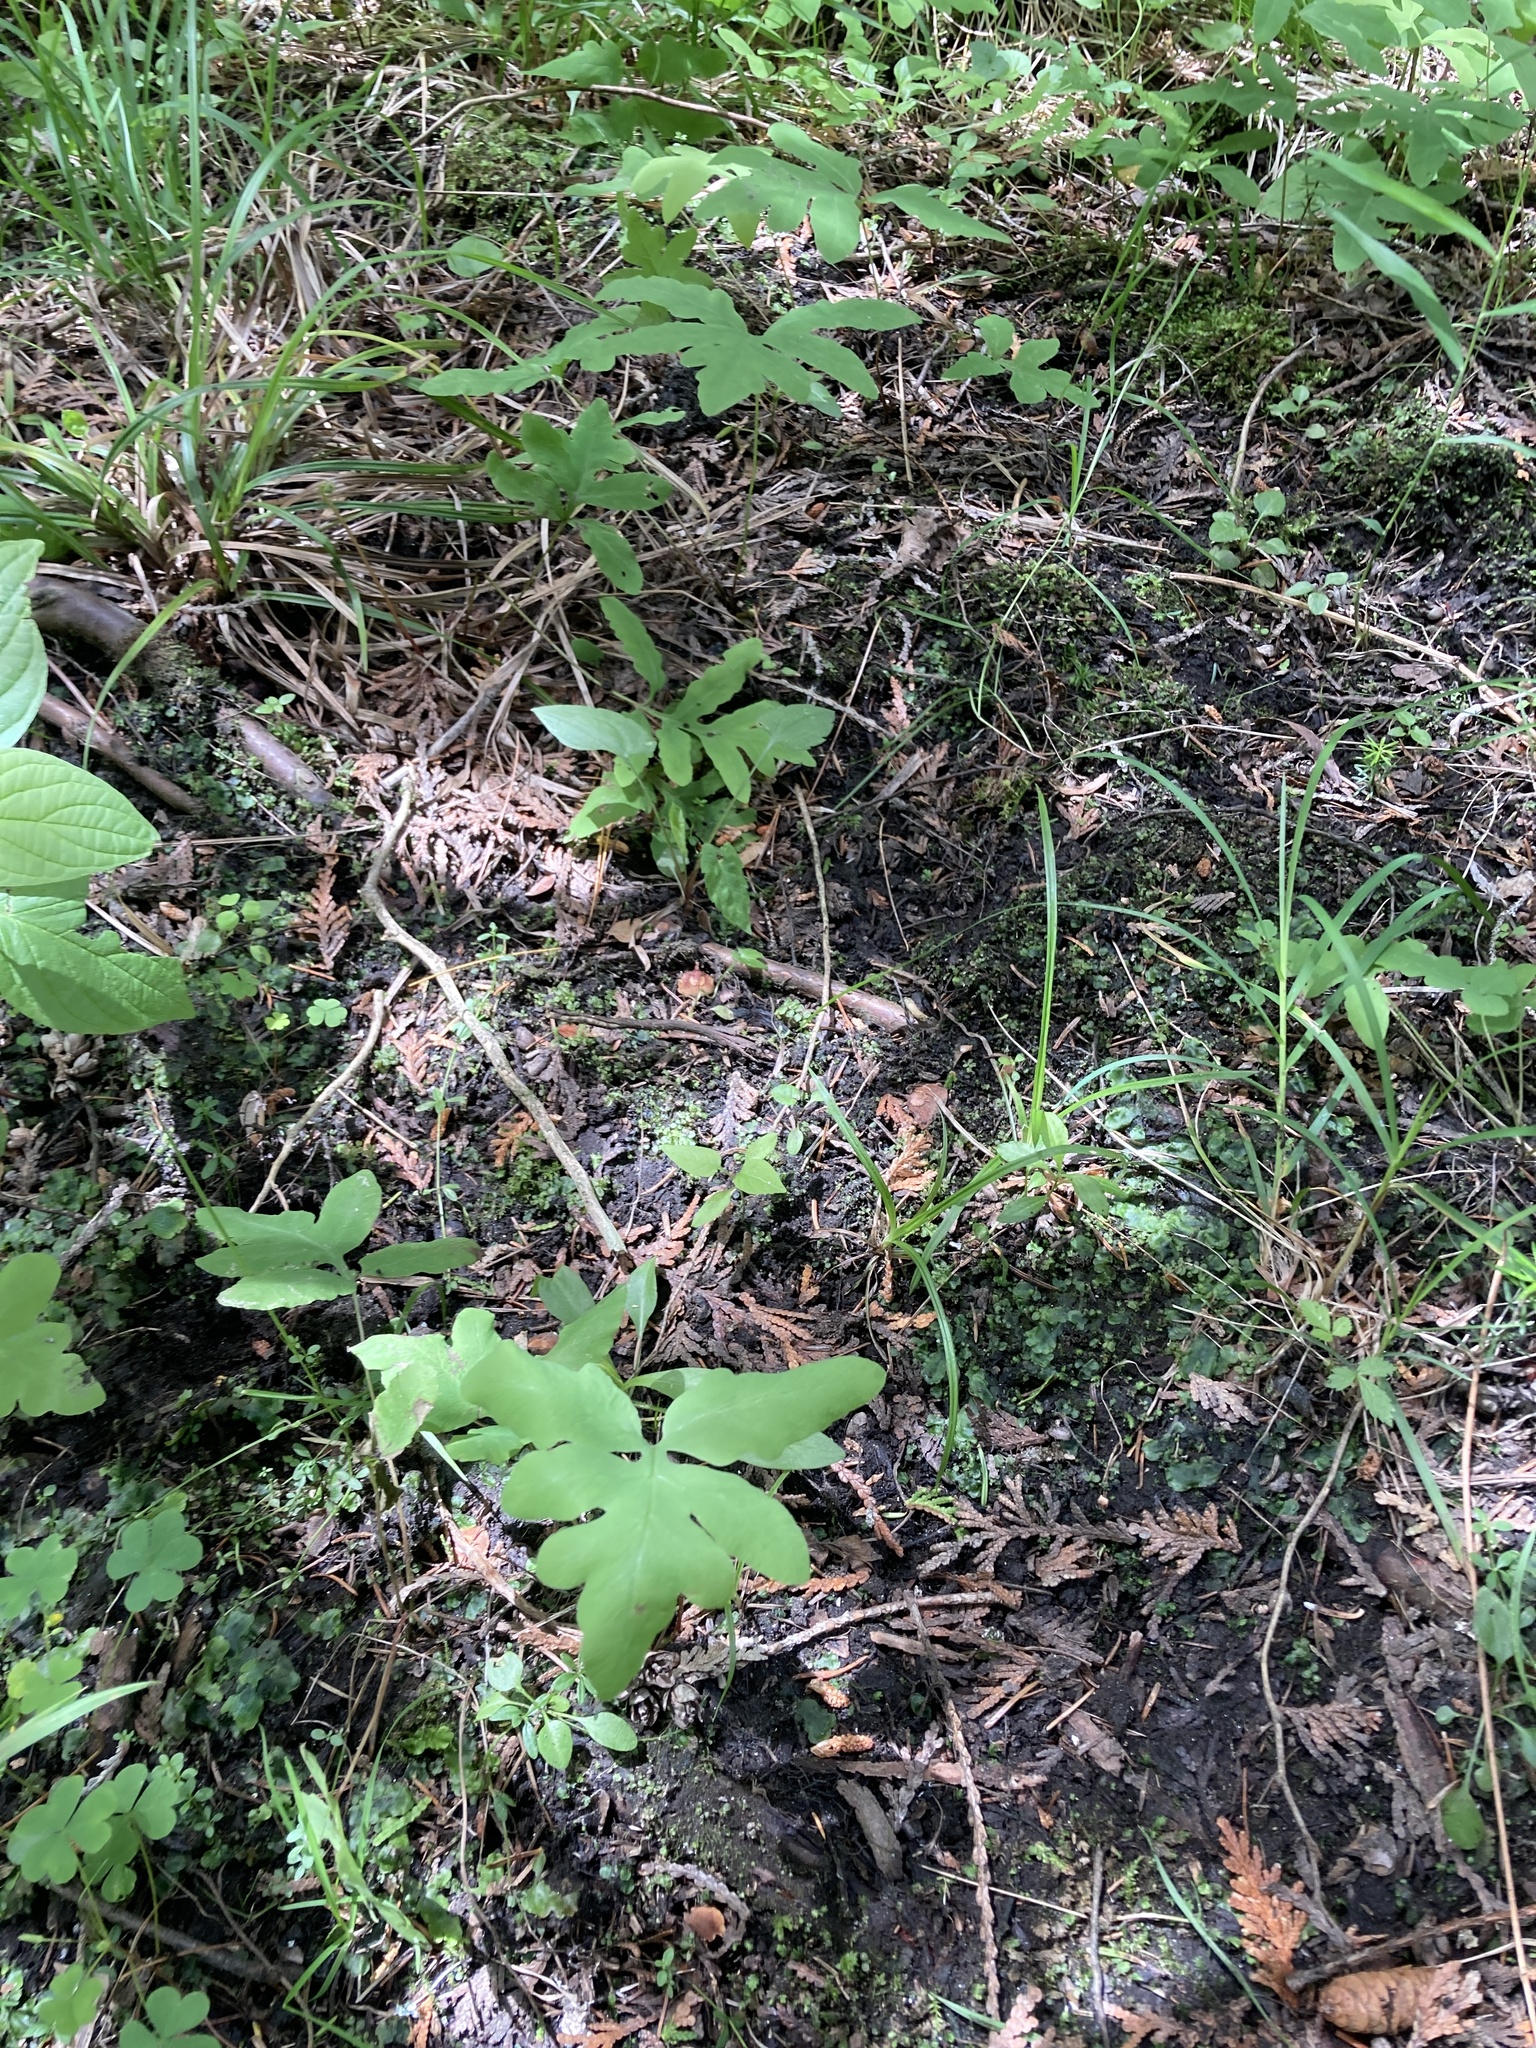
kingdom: Plantae
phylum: Tracheophyta
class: Polypodiopsida
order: Polypodiales
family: Onocleaceae
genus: Onoclea
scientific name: Onoclea sensibilis
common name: Sensitive fern
